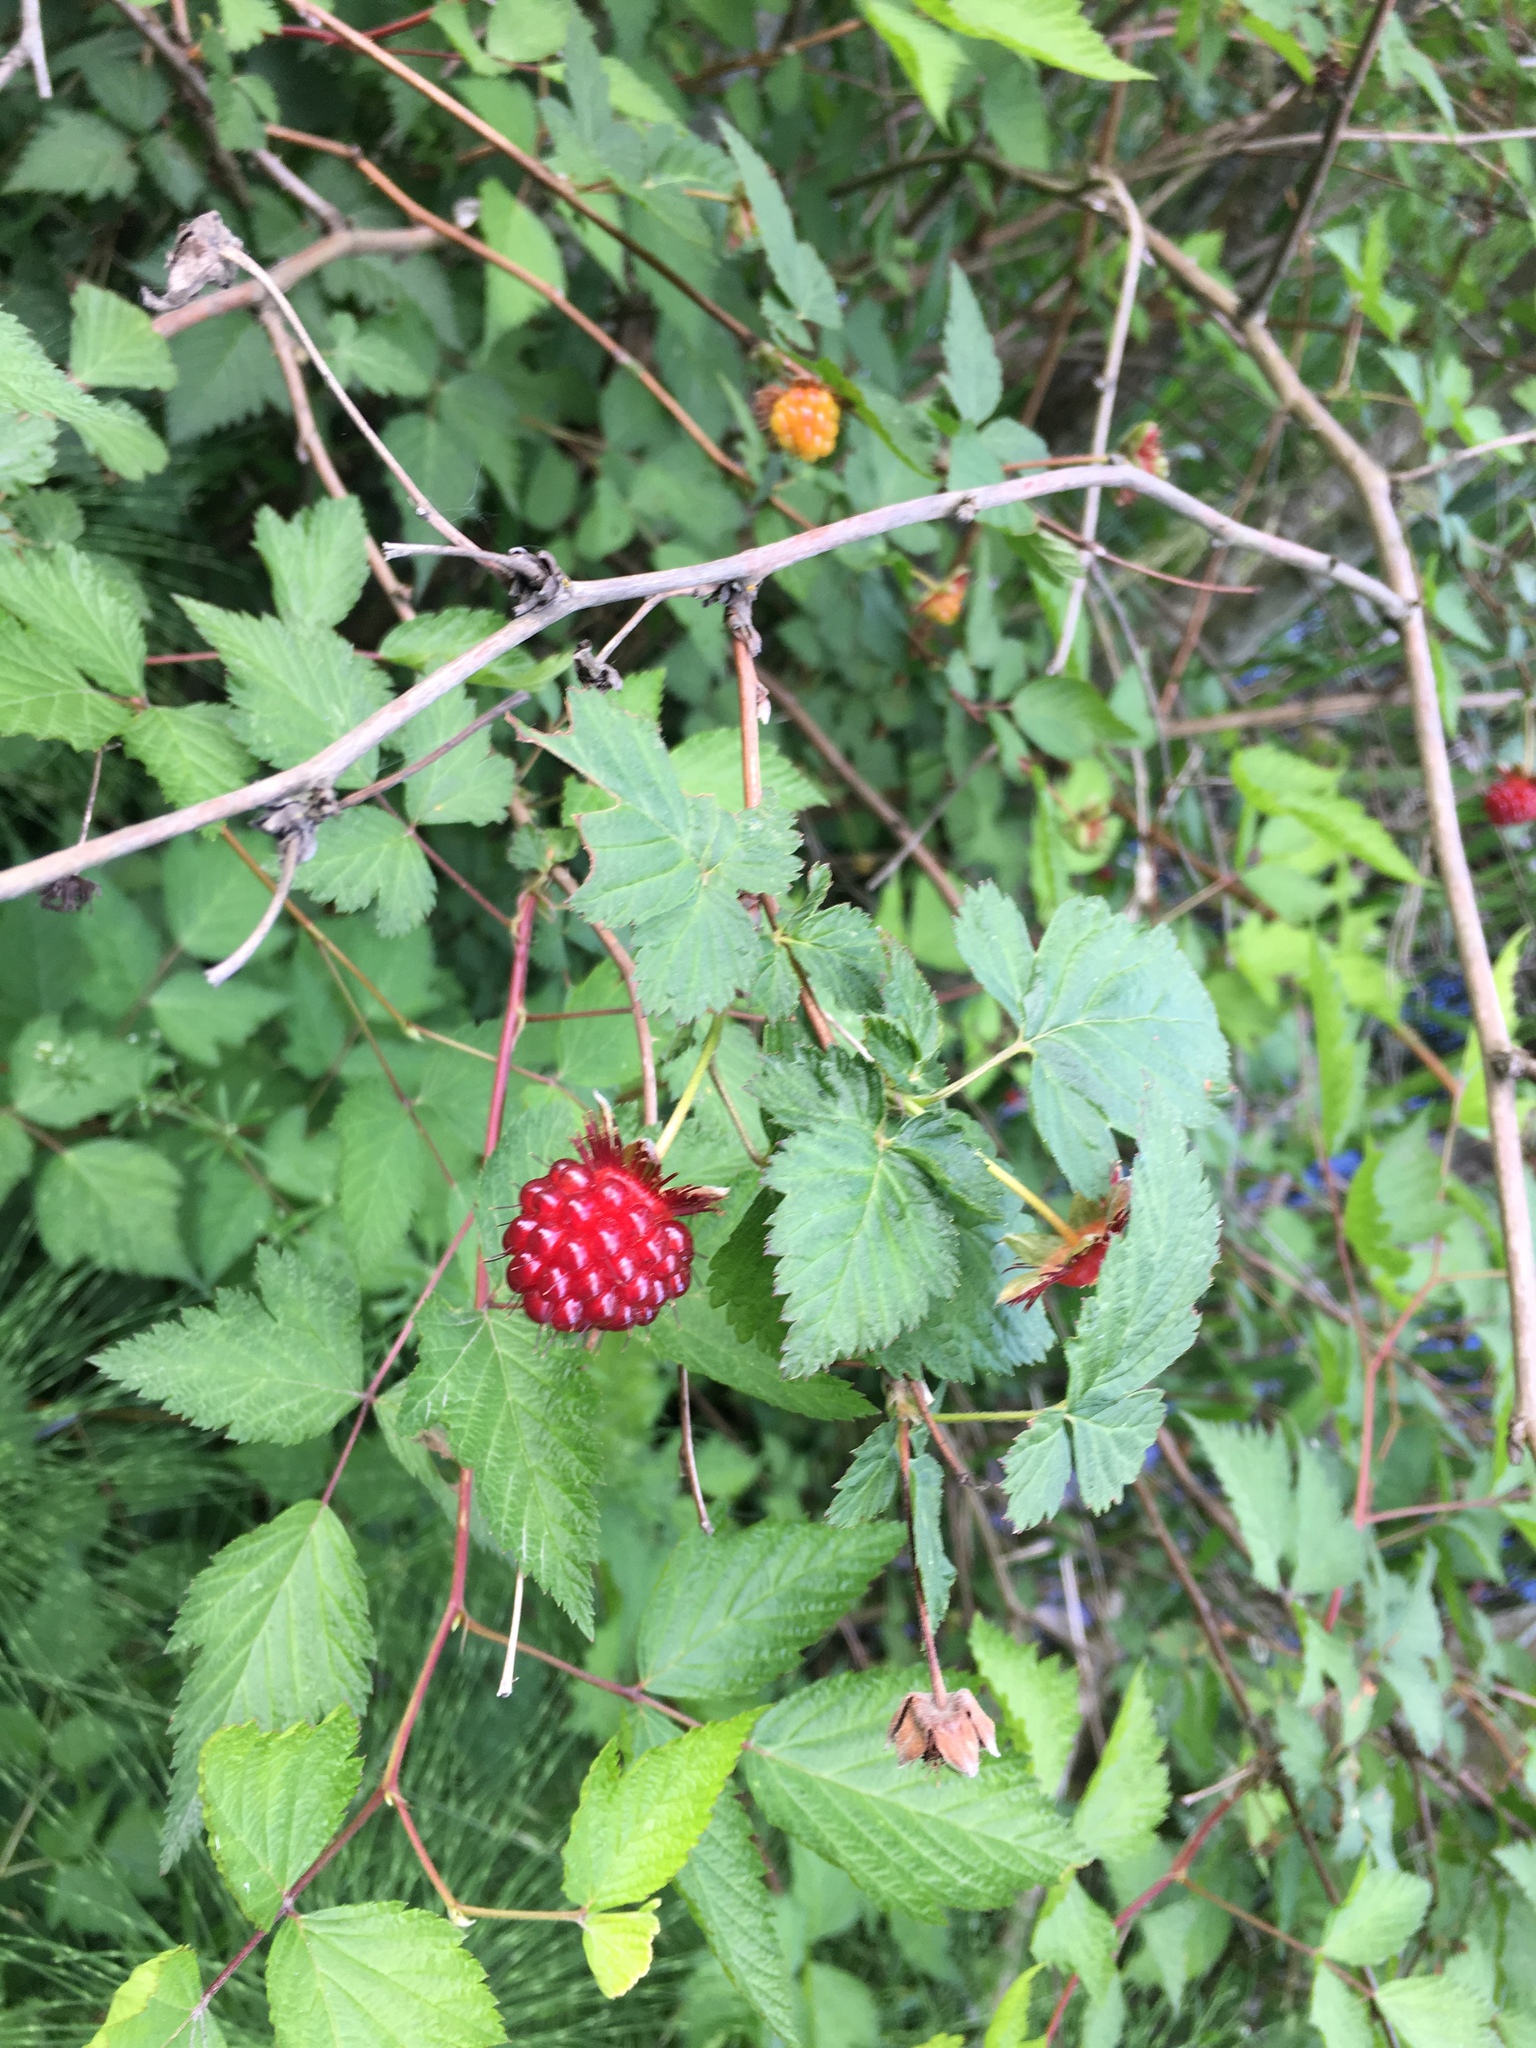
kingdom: Plantae
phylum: Tracheophyta
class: Magnoliopsida
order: Rosales
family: Rosaceae
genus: Rubus
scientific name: Rubus spectabilis
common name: Salmonberry
